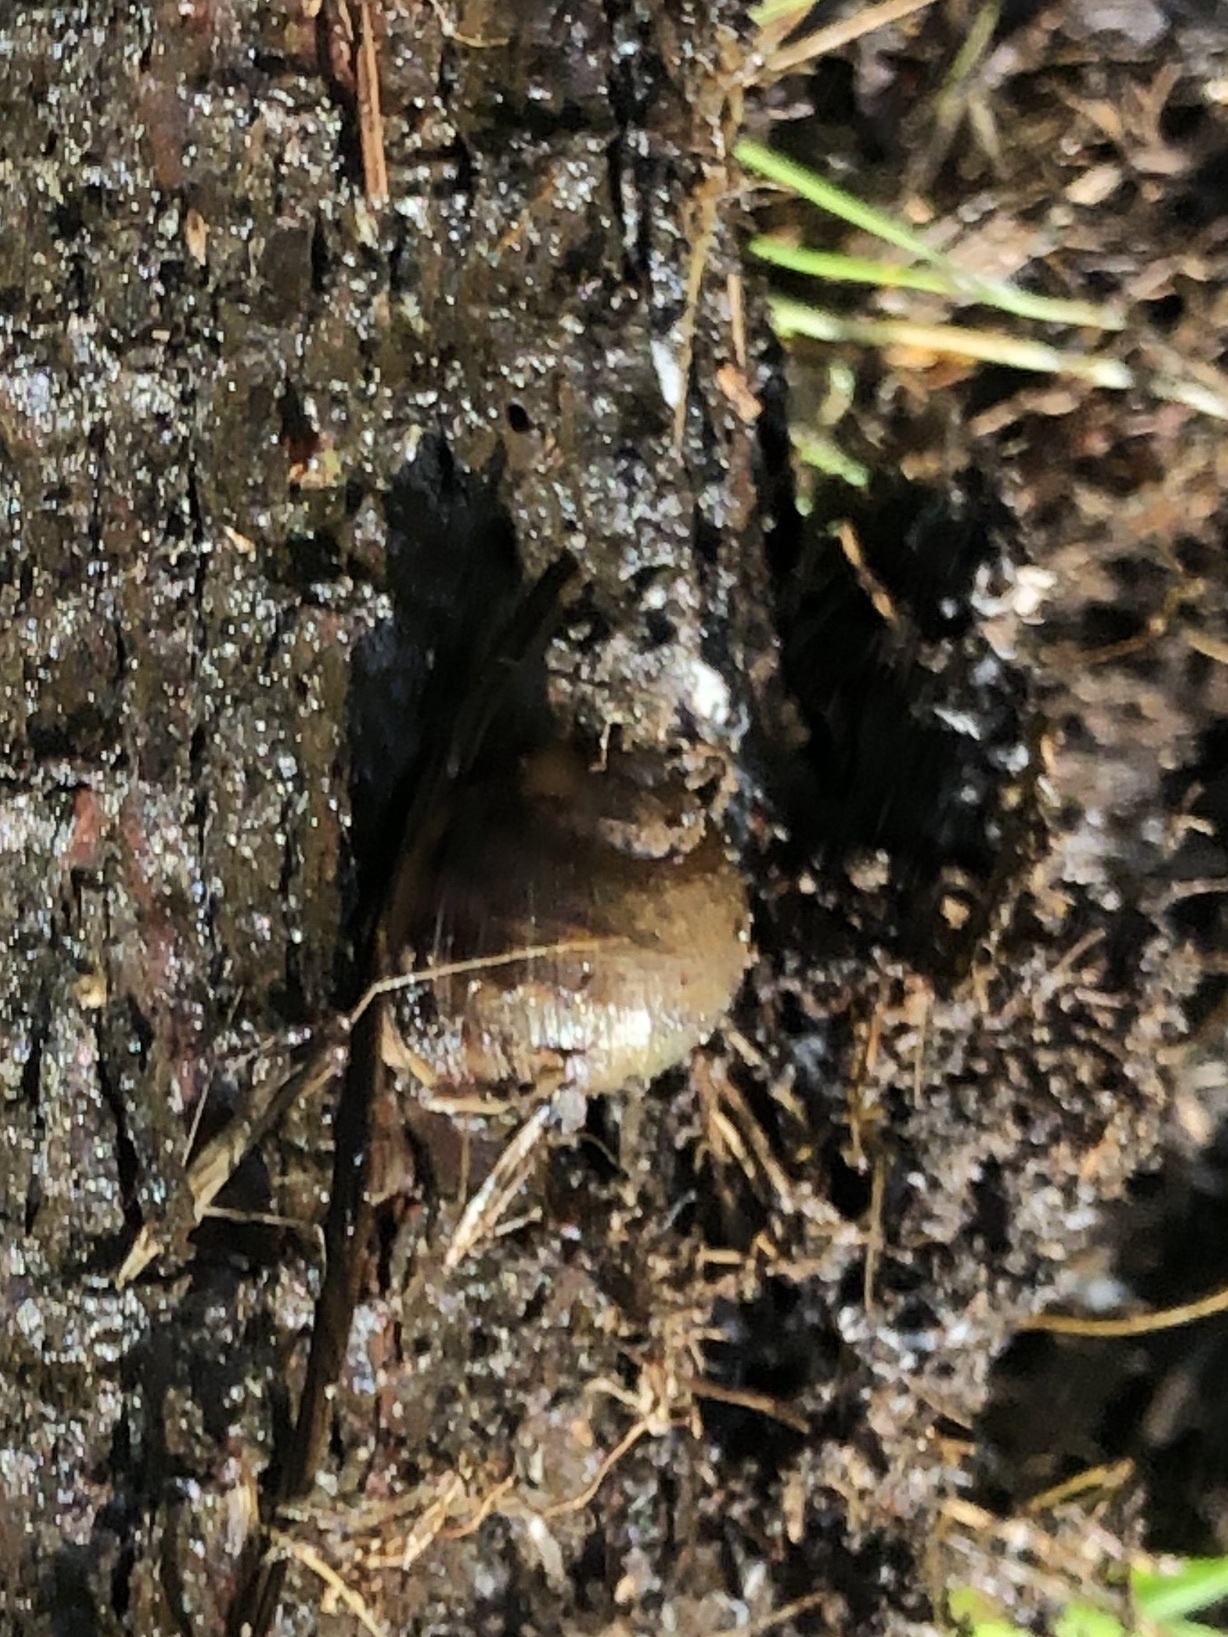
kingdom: Animalia
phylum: Mollusca
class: Gastropoda
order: Stylommatophora
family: Helicidae
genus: Cornu
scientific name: Cornu aspersum
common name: Brown garden snail
